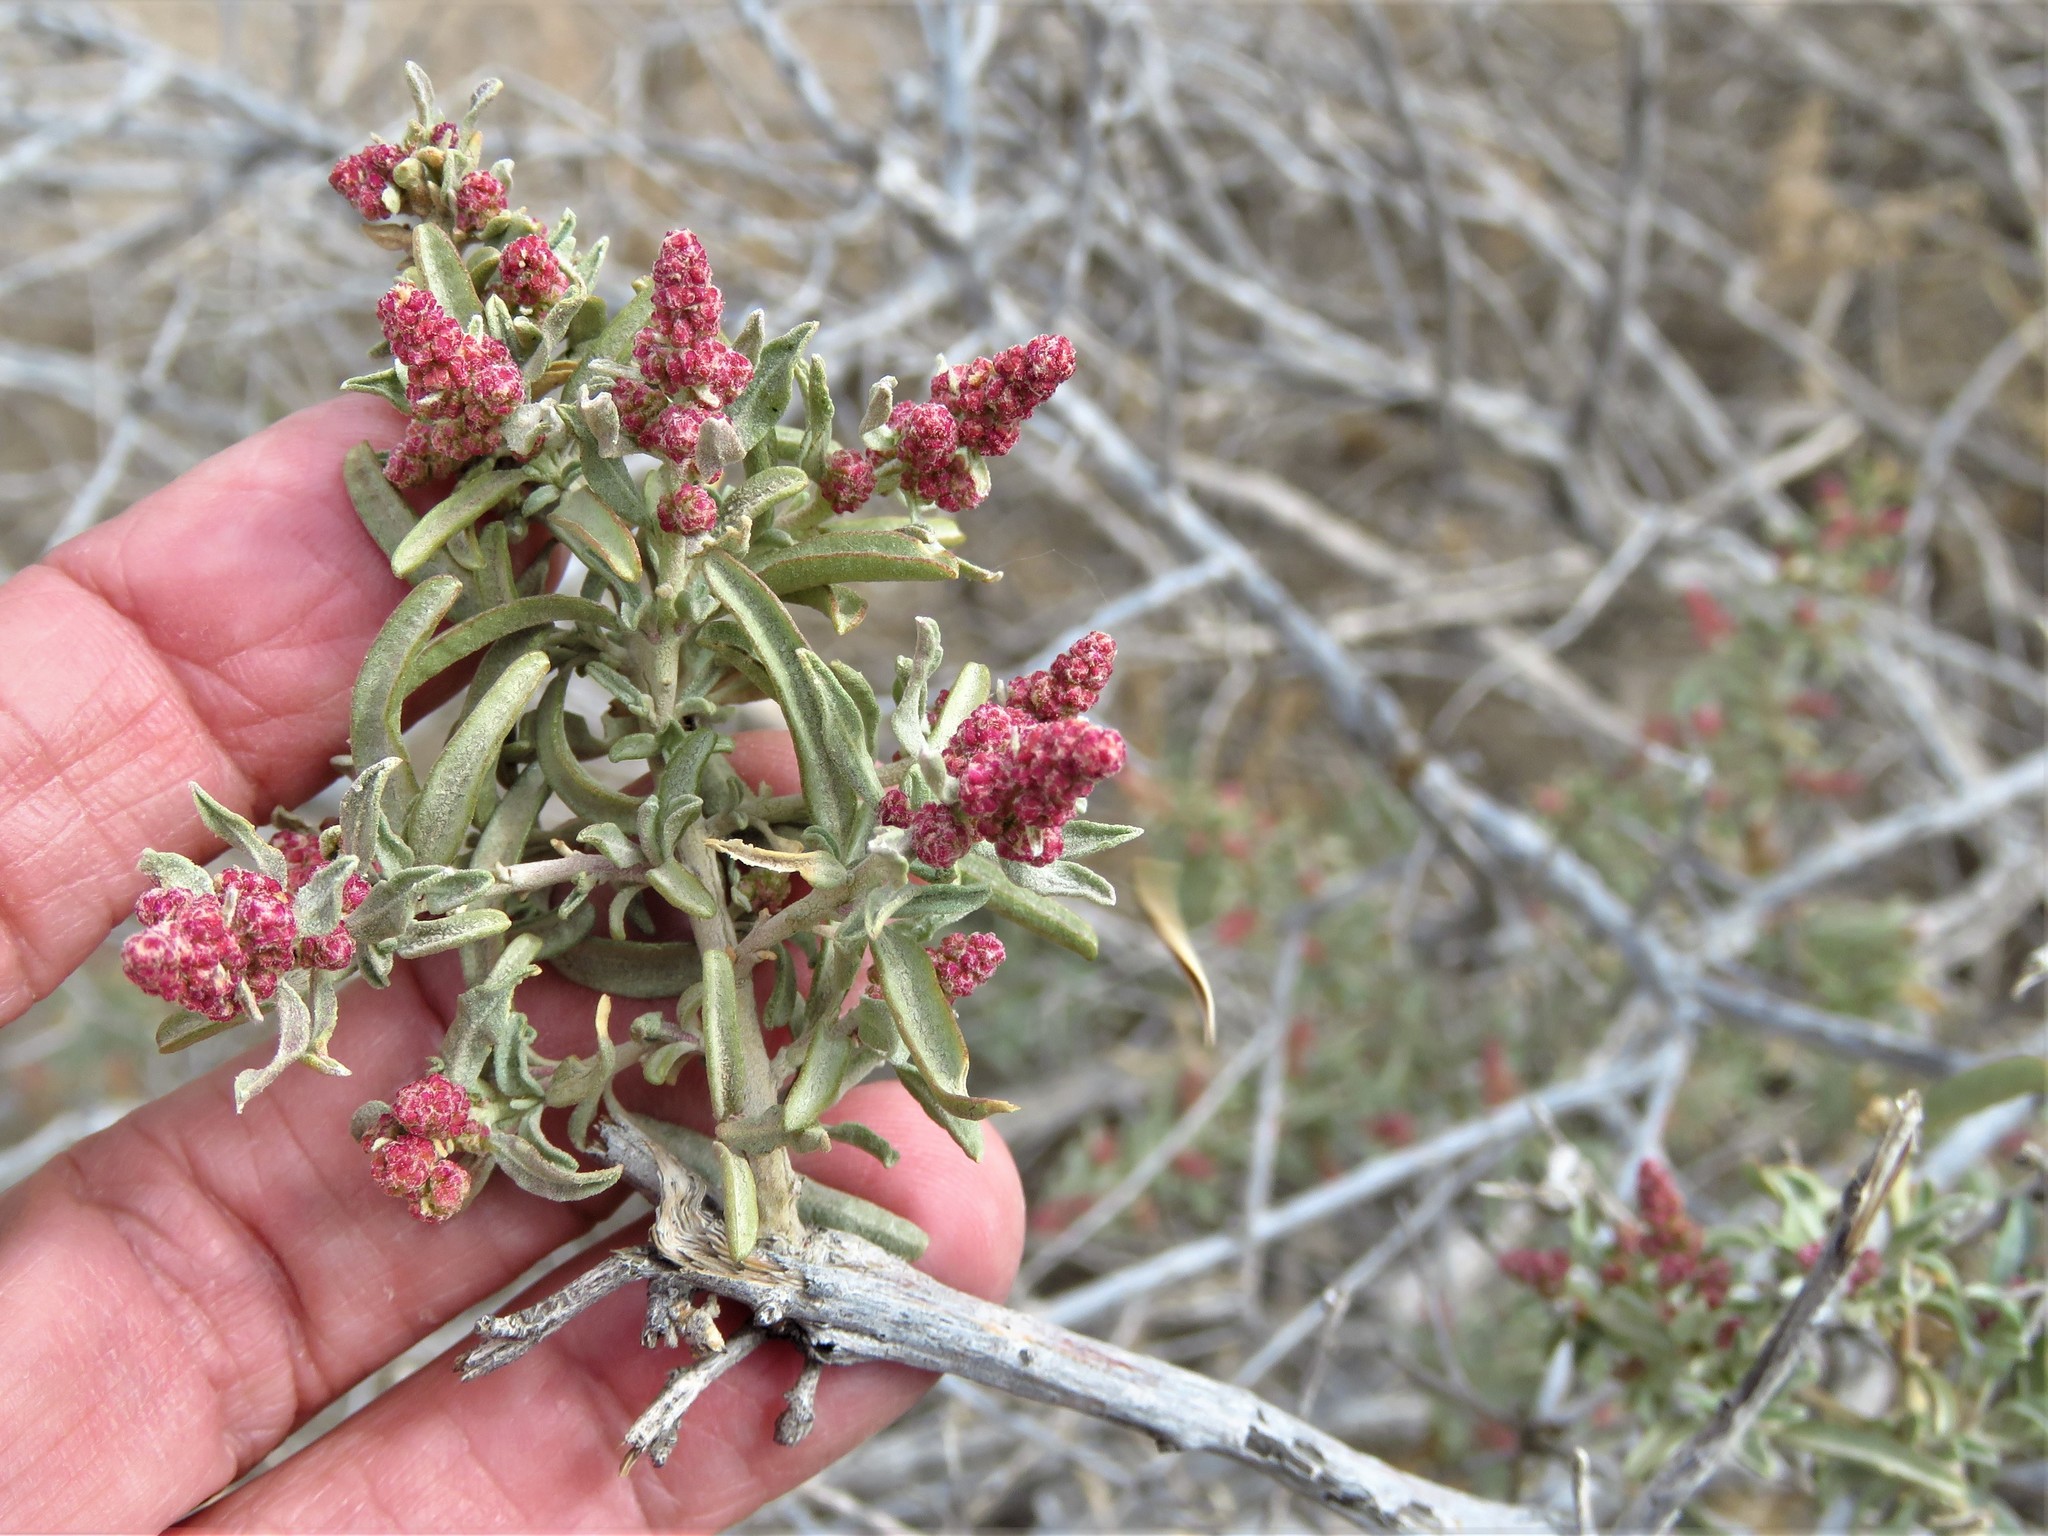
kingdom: Plantae
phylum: Tracheophyta
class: Magnoliopsida
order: Caryophyllales
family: Amaranthaceae
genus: Atriplex
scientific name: Atriplex canescens
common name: Four-wing saltbush
